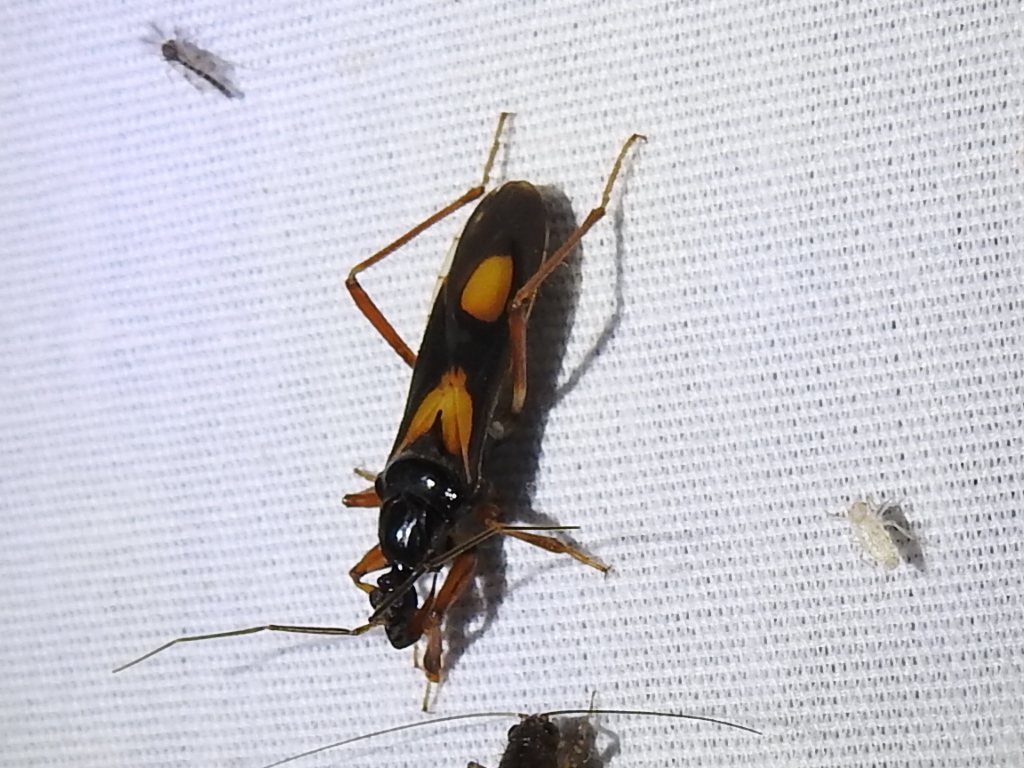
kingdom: Animalia
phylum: Arthropoda
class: Insecta
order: Hemiptera
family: Reduviidae
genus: Rasahus
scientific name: Rasahus hamatus
